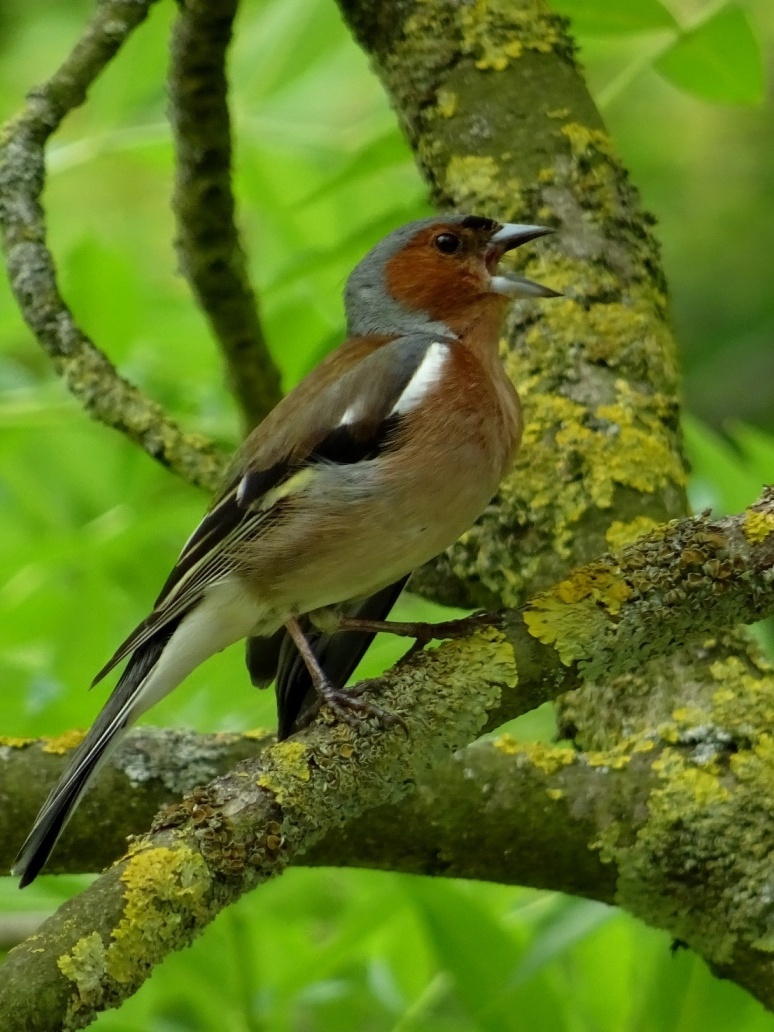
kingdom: Animalia
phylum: Chordata
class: Aves
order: Passeriformes
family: Fringillidae
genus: Fringilla
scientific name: Fringilla coelebs
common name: Common chaffinch
